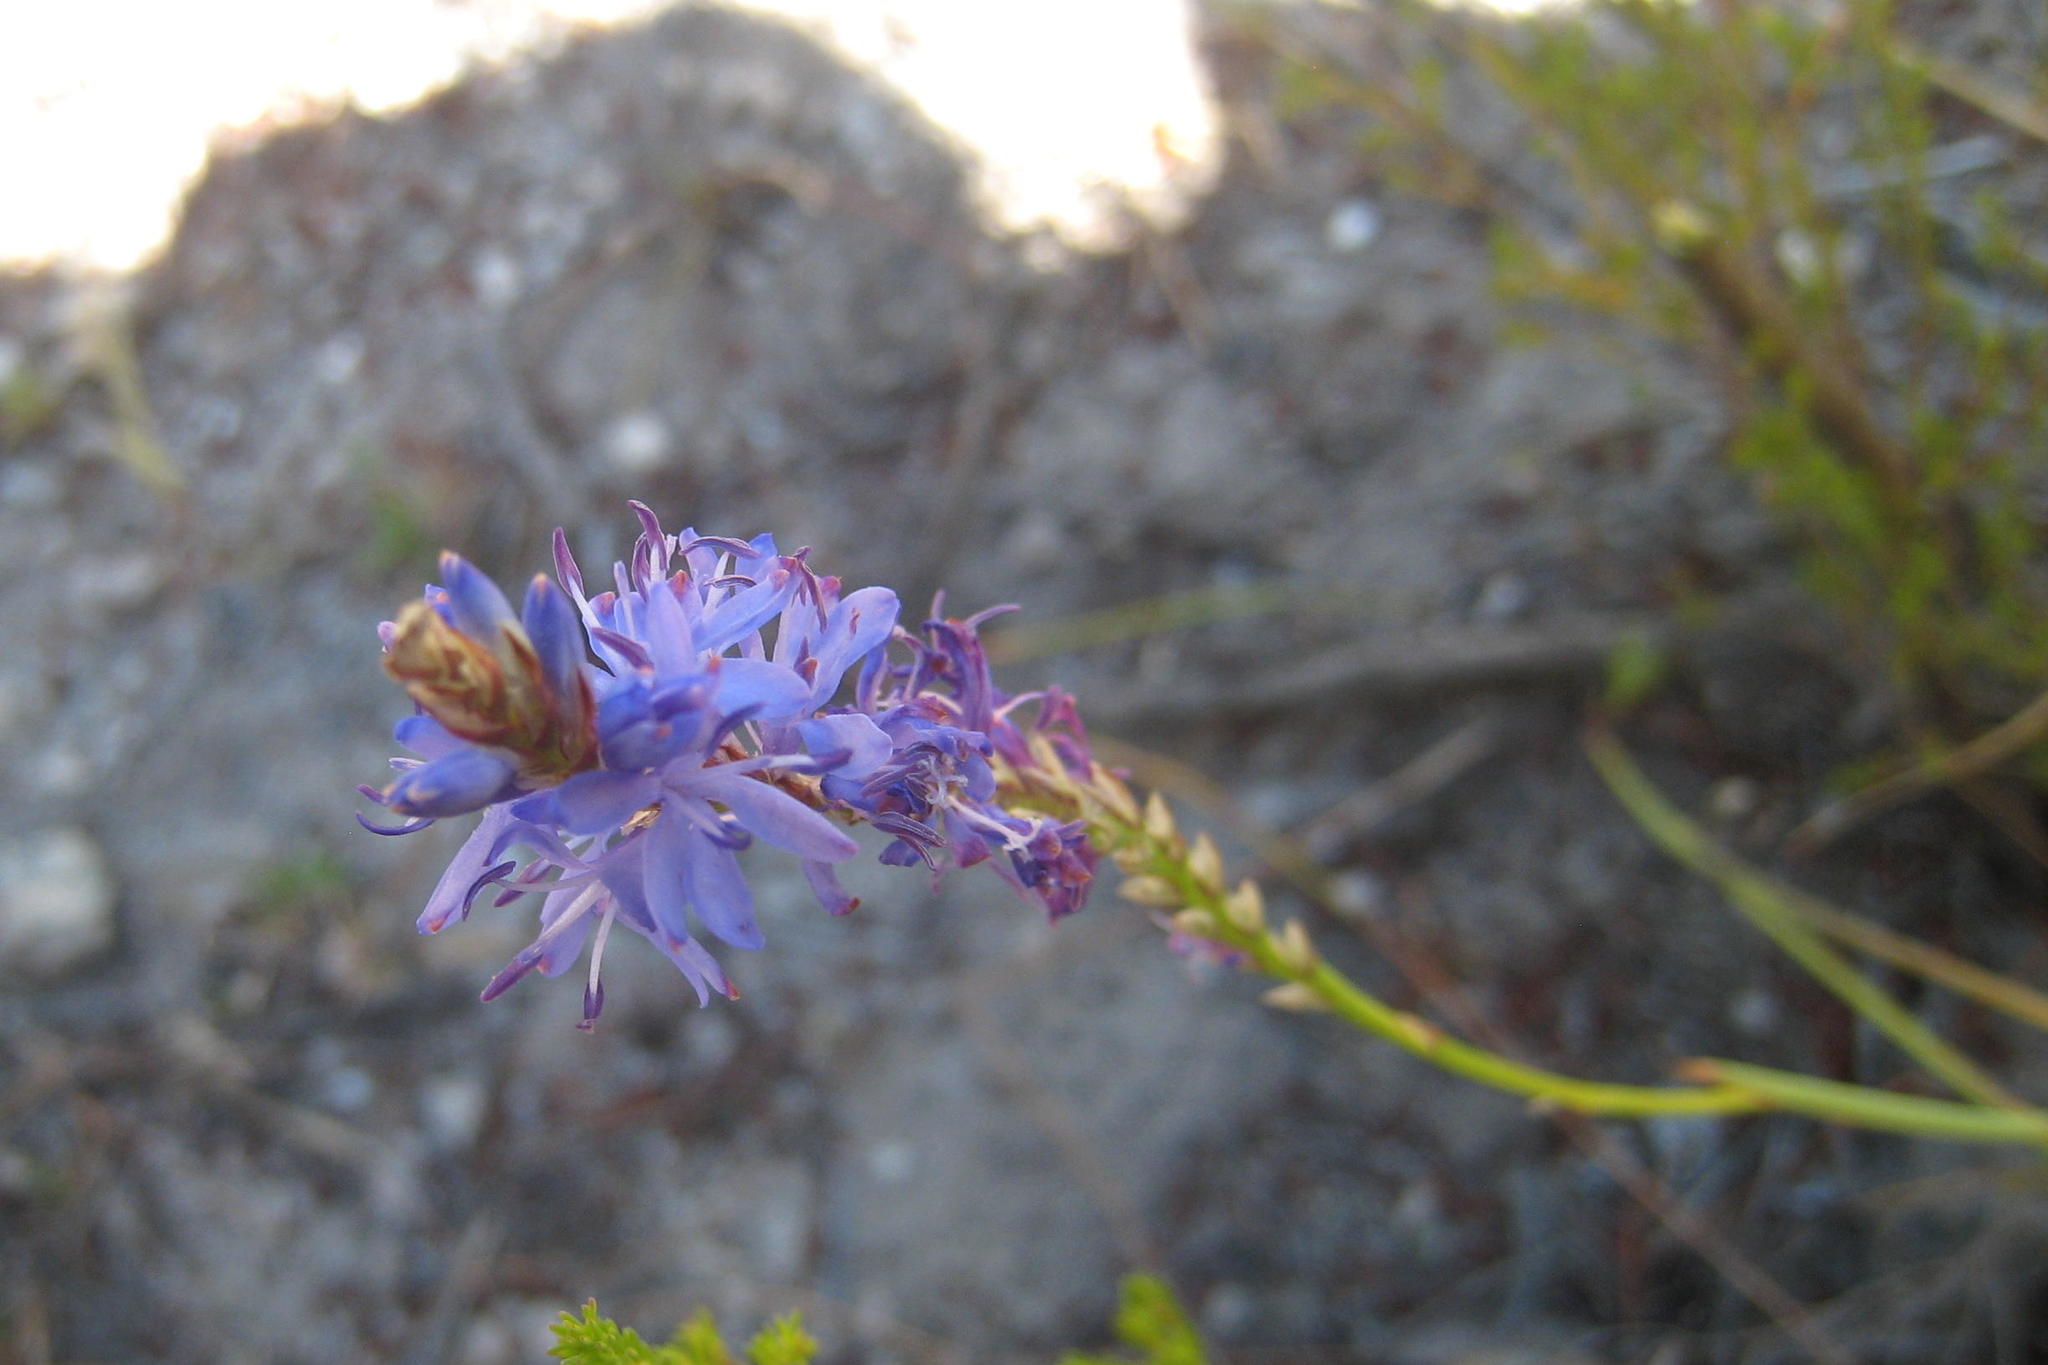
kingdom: Plantae
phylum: Tracheophyta
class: Liliopsida
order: Asparagales
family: Iridaceae
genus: Micranthus
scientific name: Micranthus plantagineus
